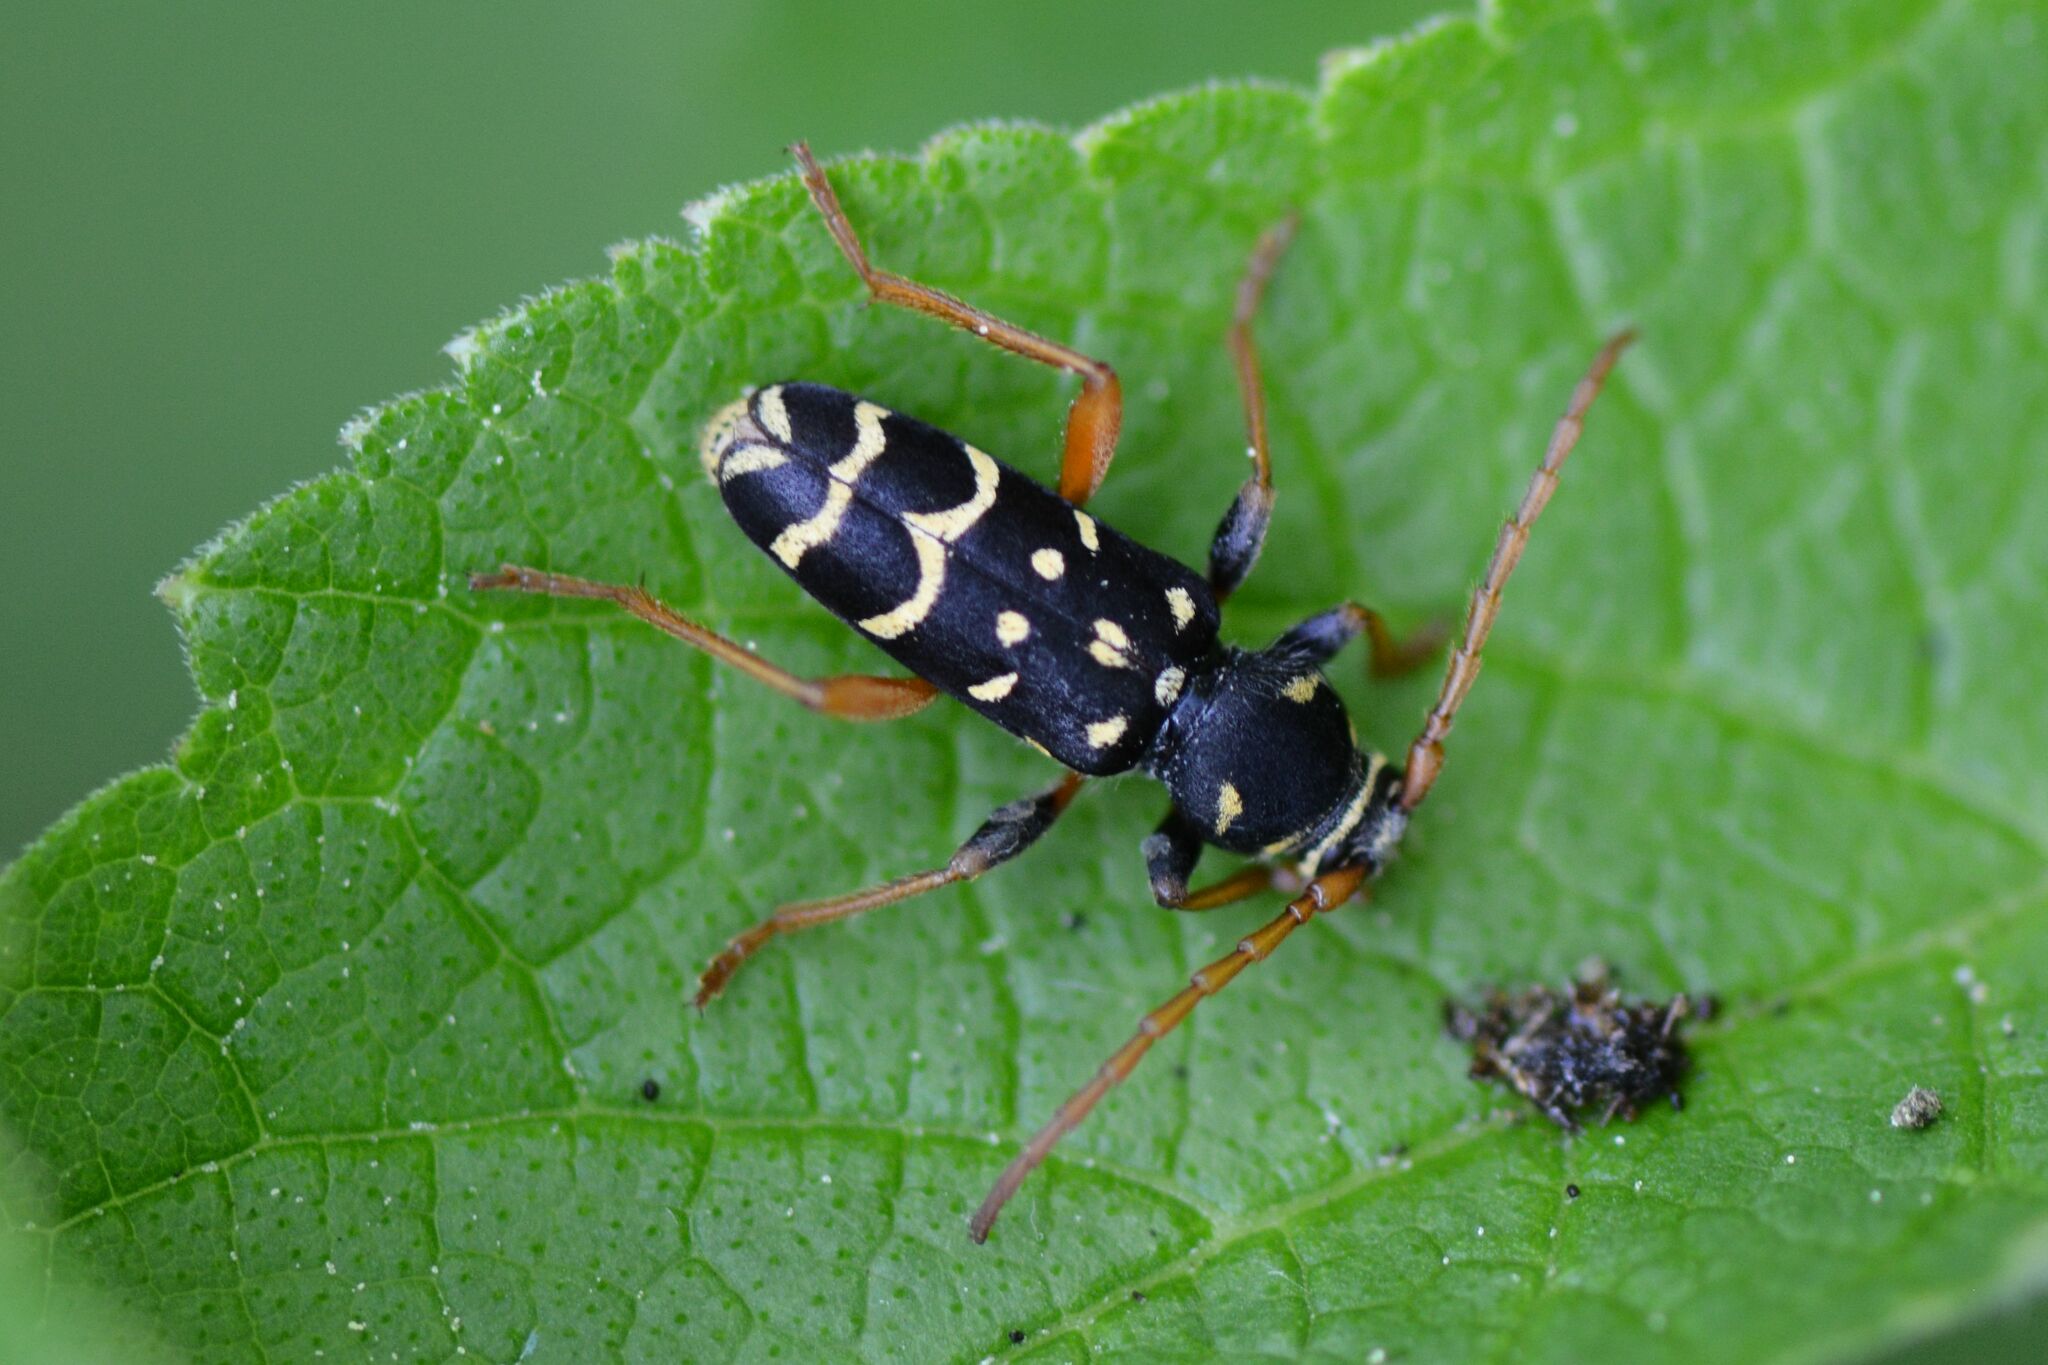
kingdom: Animalia
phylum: Arthropoda
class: Insecta
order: Coleoptera
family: Cerambycidae
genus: Plagionotus
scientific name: Plagionotus arcuatus
